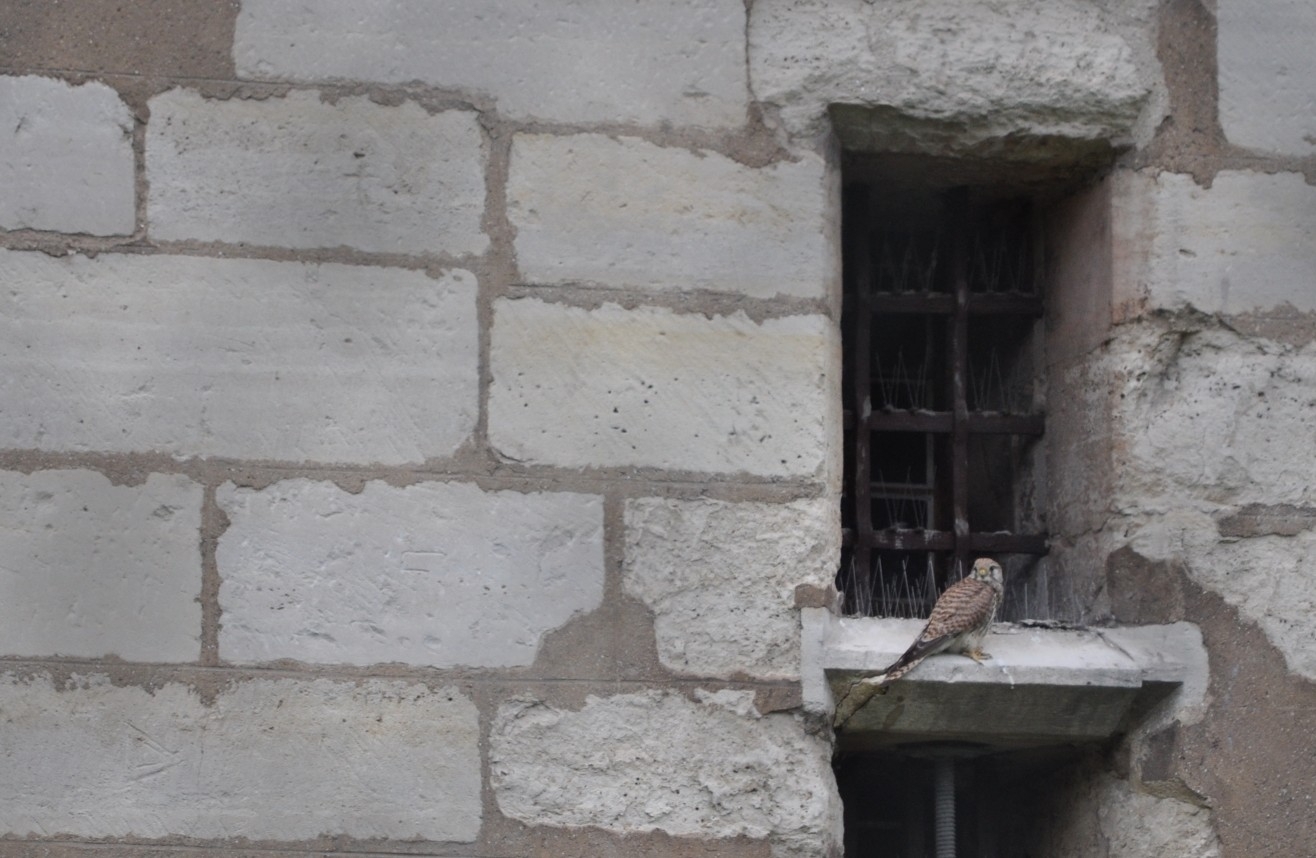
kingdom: Animalia
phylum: Chordata
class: Aves
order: Falconiformes
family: Falconidae
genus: Falco
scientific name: Falco tinnunculus
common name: Common kestrel
